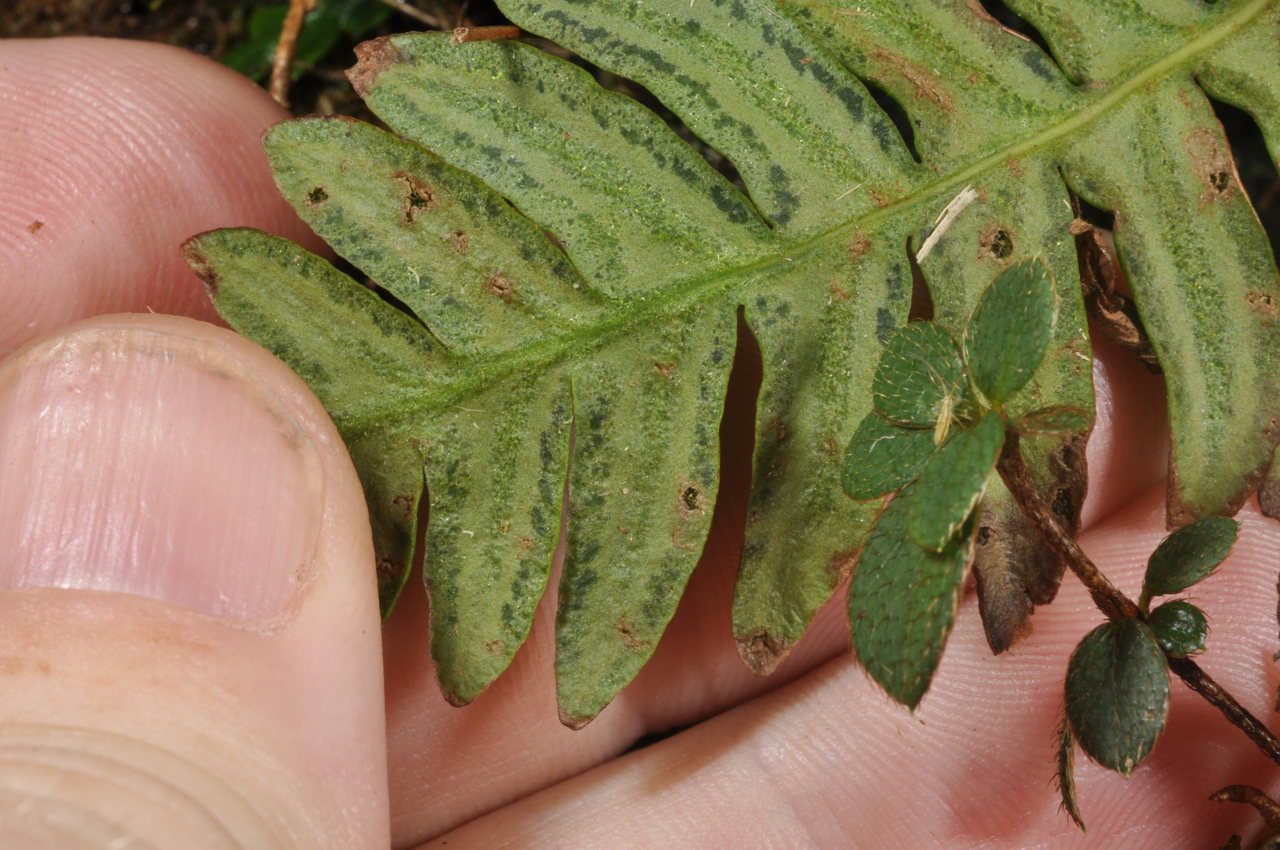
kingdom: Plantae
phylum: Tracheophyta
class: Polypodiopsida
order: Polypodiales
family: Blechnaceae
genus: Spicantopsis
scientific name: Spicantopsis hancockii
